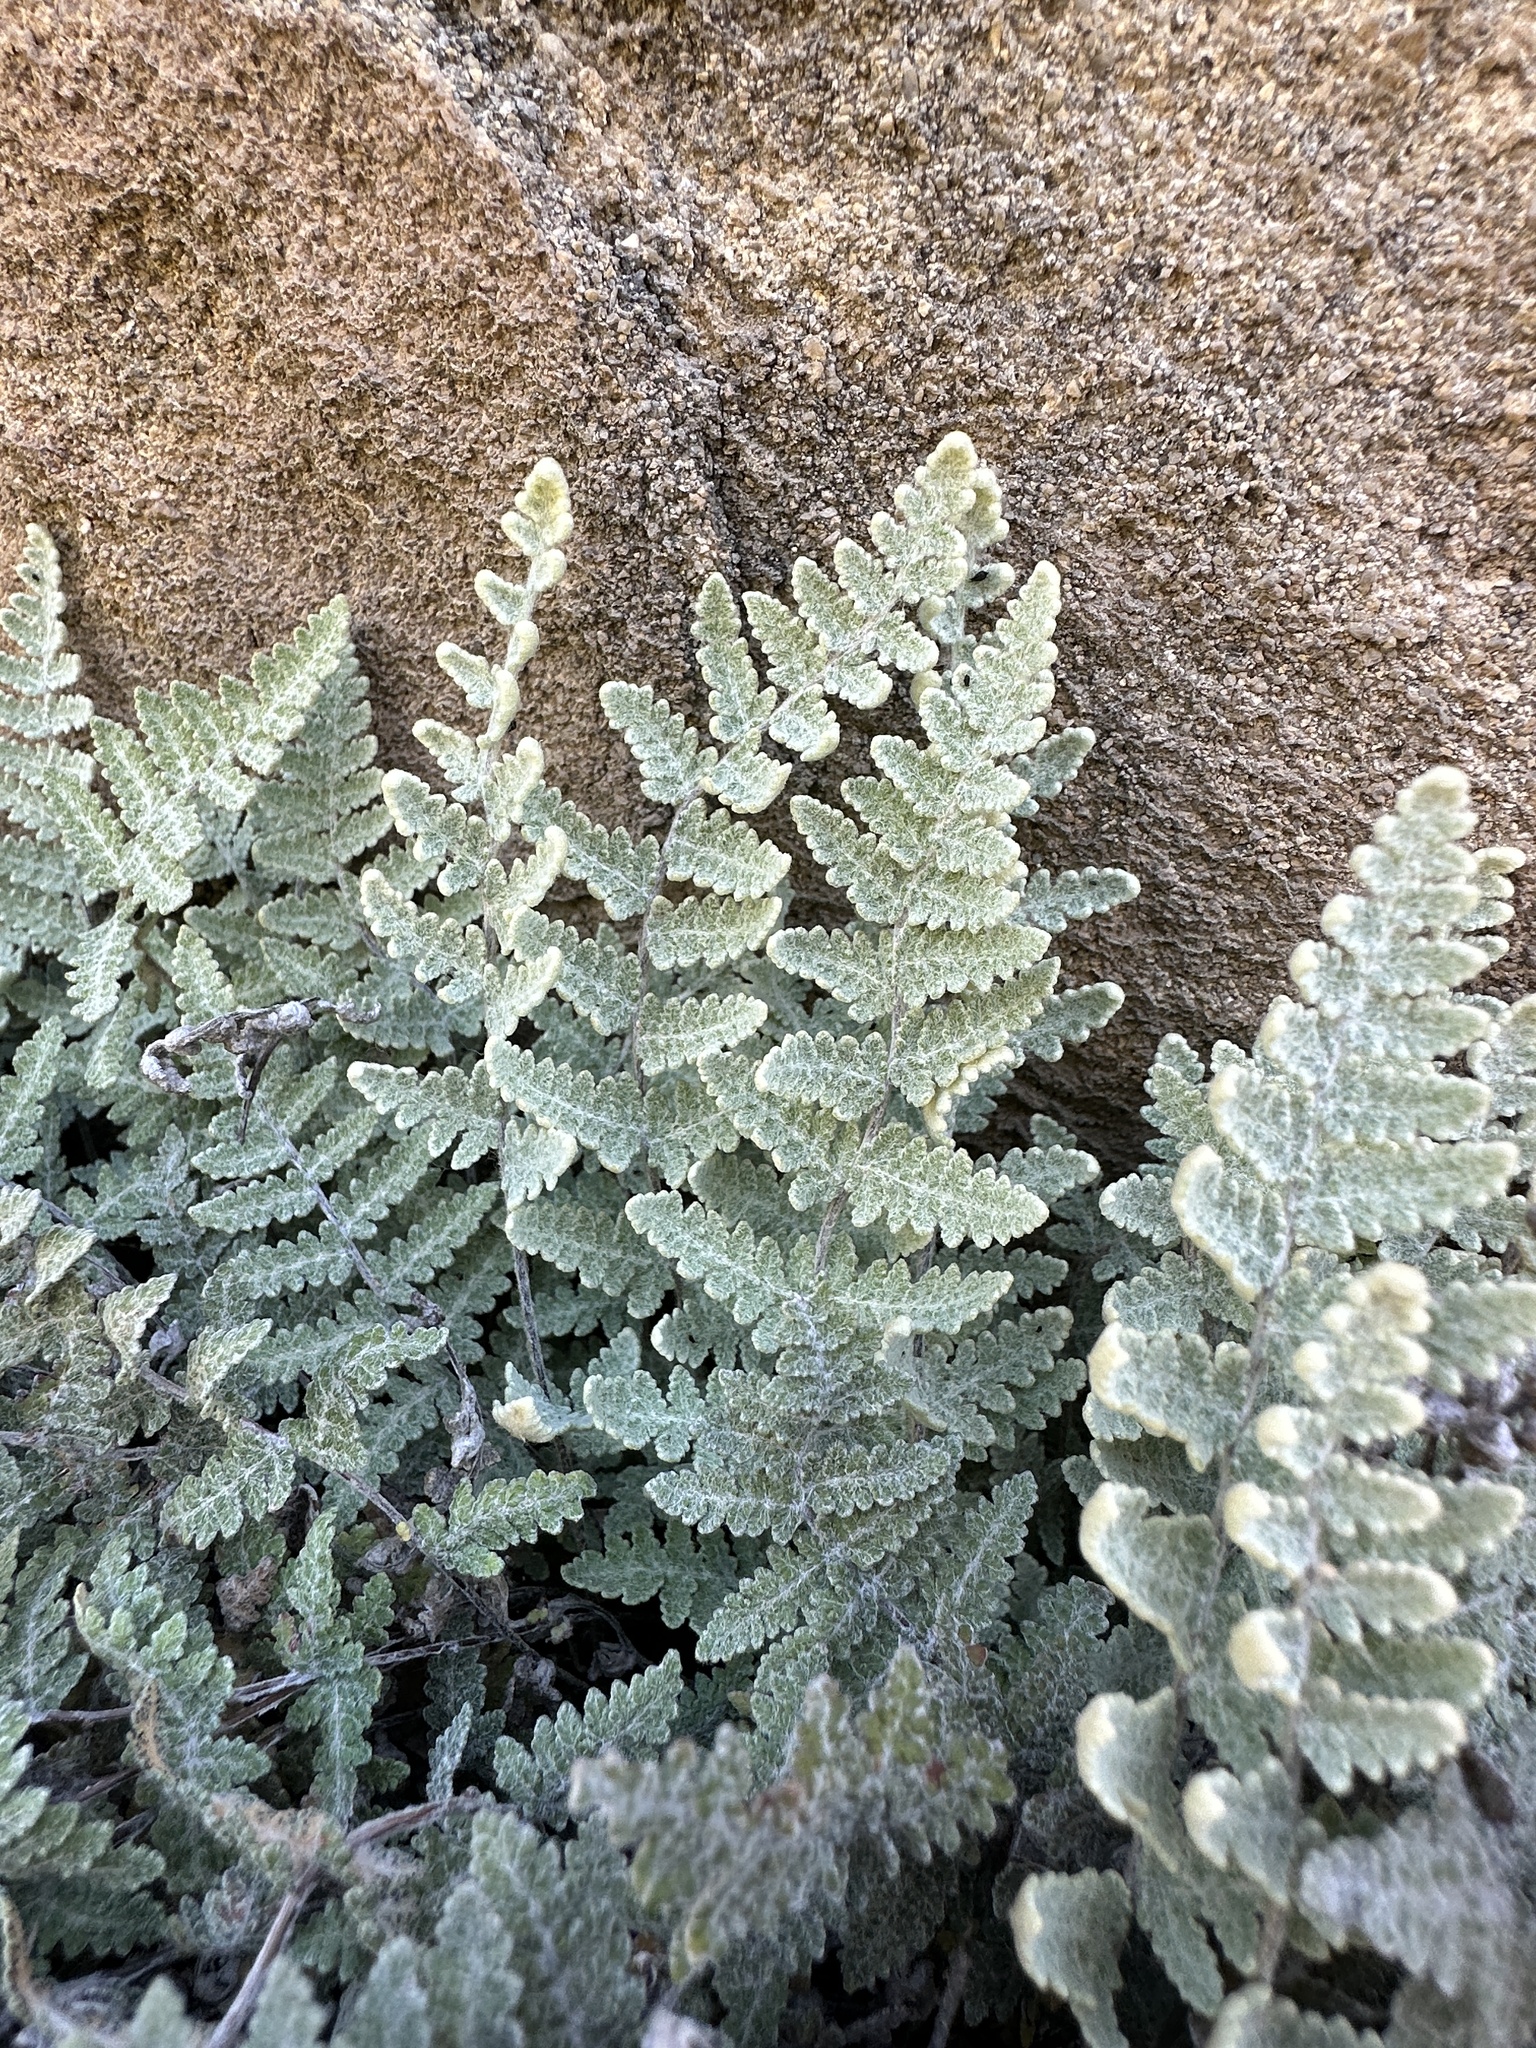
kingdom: Plantae
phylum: Tracheophyta
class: Polypodiopsida
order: Polypodiales
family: Pteridaceae
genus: Myriopteris
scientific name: Myriopteris newberryi
